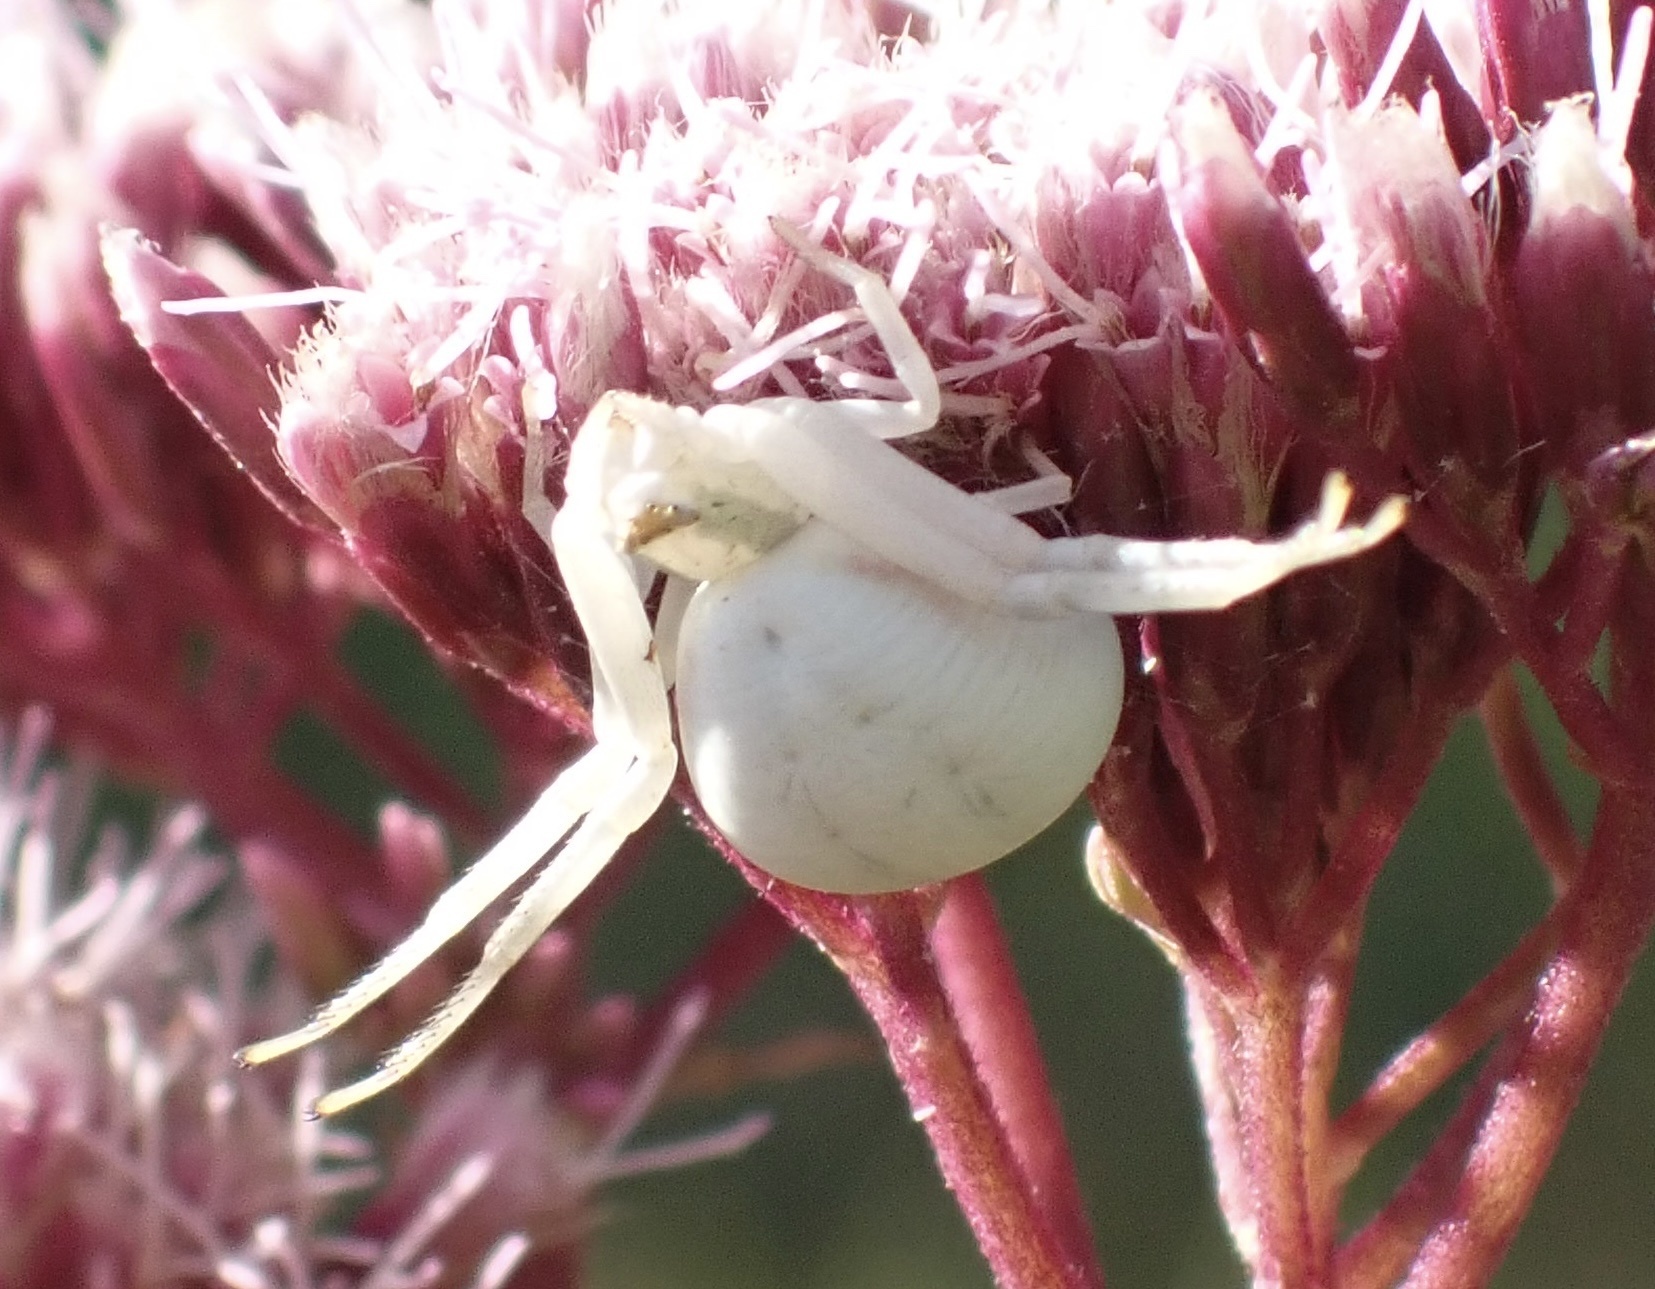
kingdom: Animalia
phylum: Arthropoda
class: Arachnida
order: Araneae
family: Thomisidae
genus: Misumena
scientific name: Misumena vatia
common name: Goldenrod crab spider
